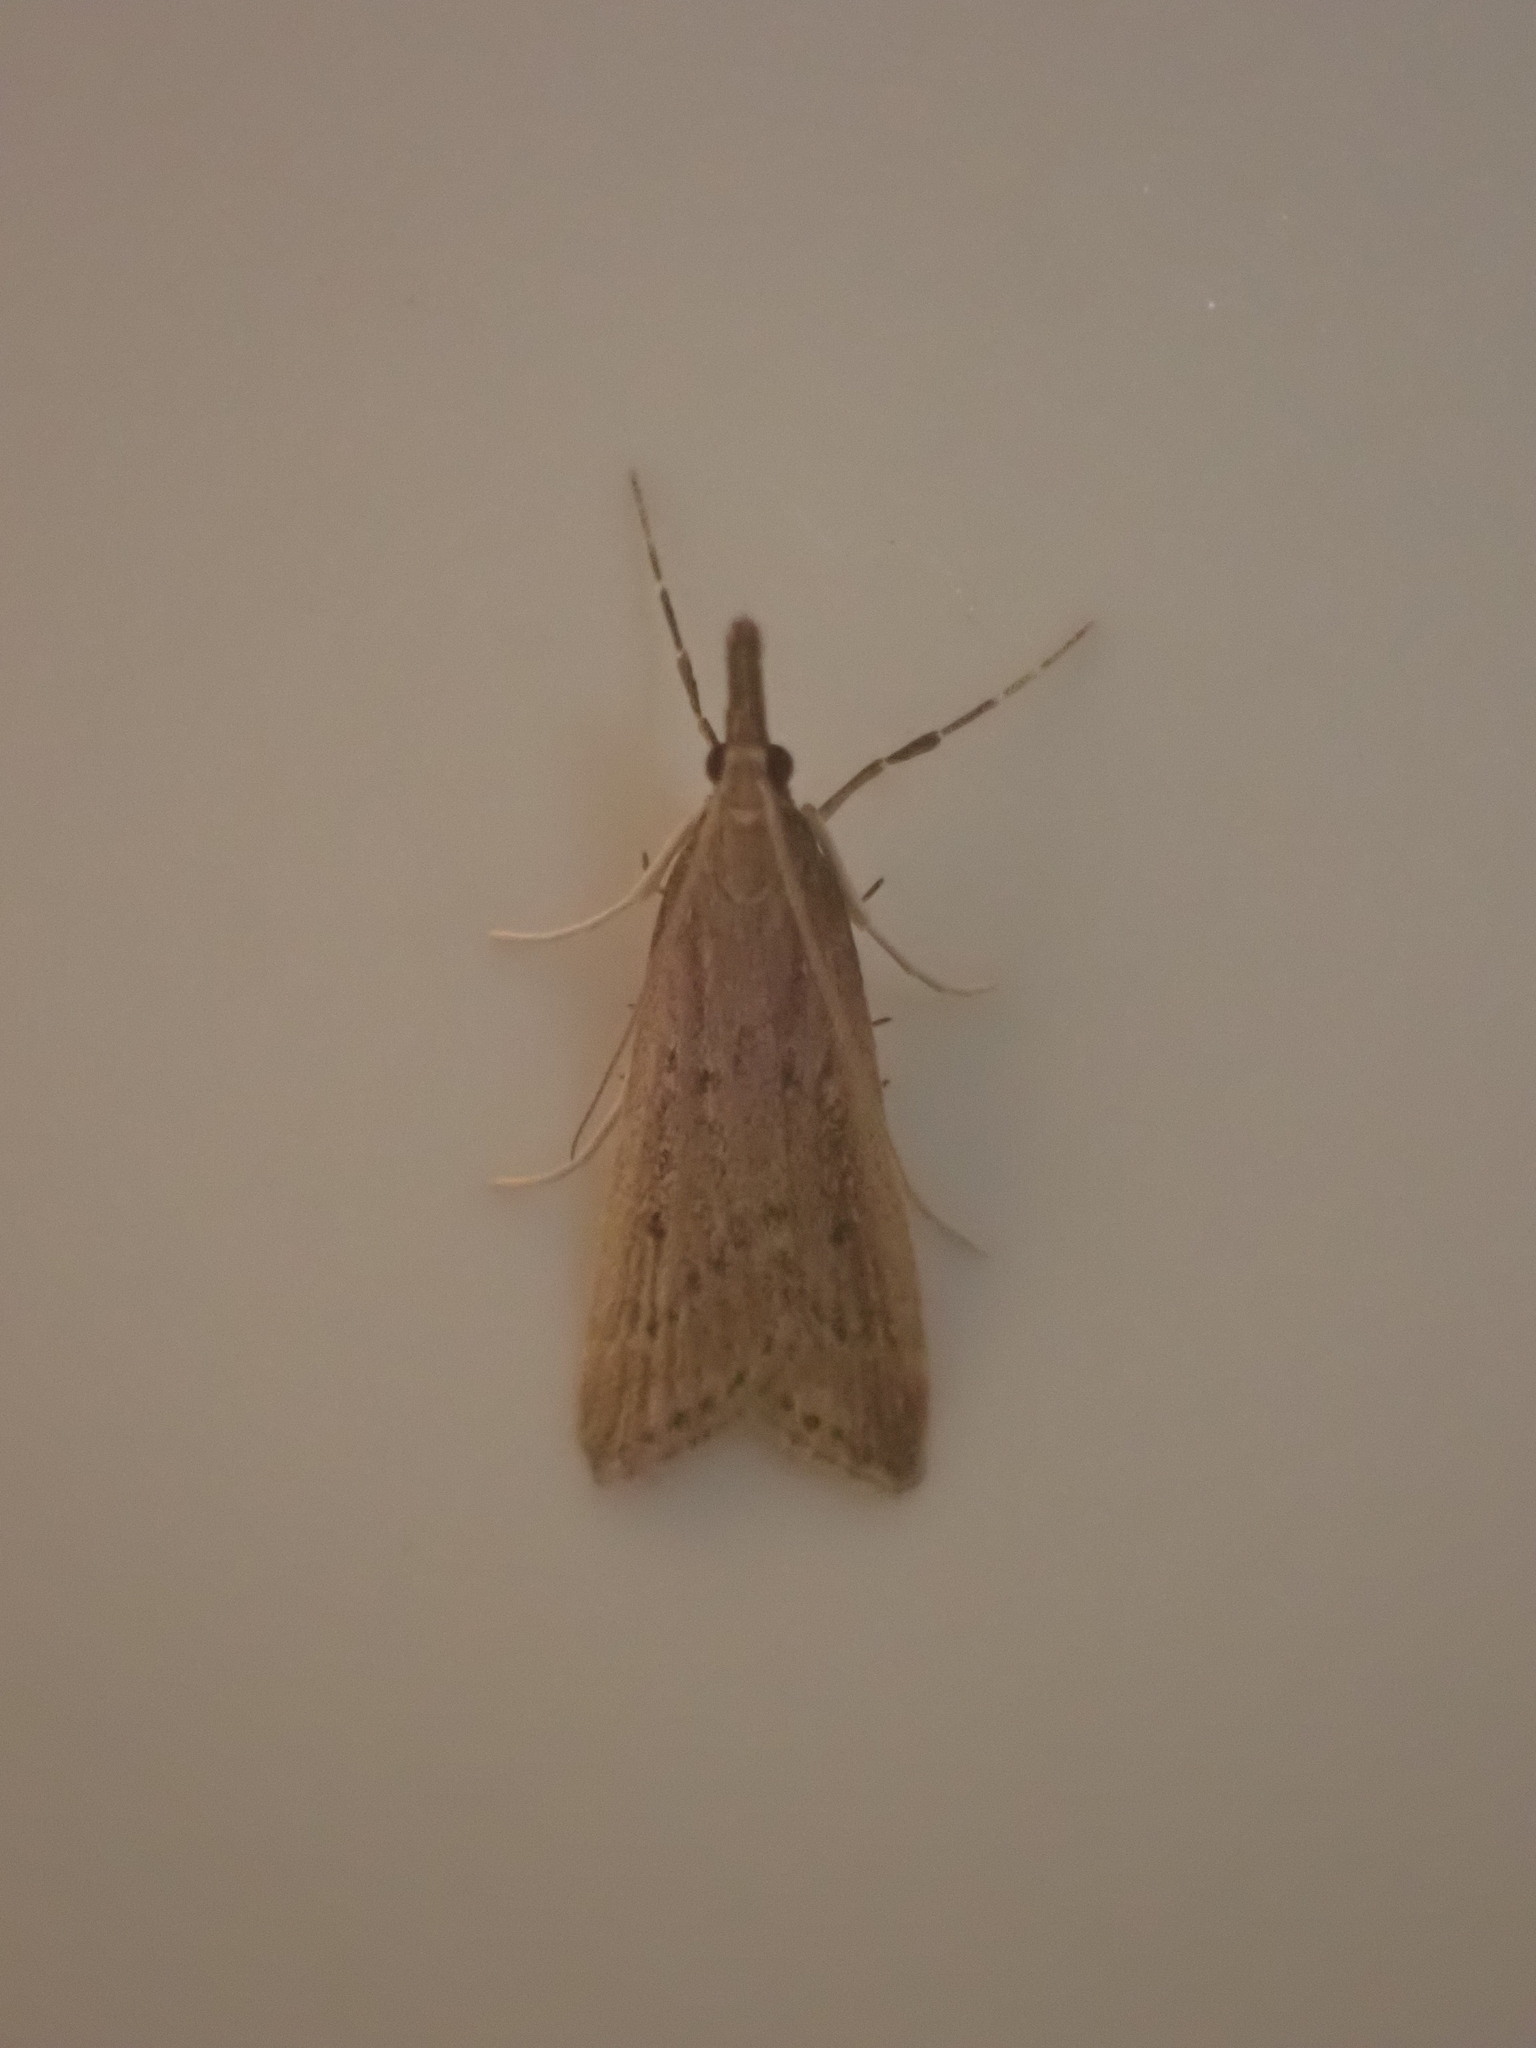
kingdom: Animalia
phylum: Arthropoda
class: Insecta
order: Lepidoptera
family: Crambidae
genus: Antiscopa
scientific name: Antiscopa elaphra
